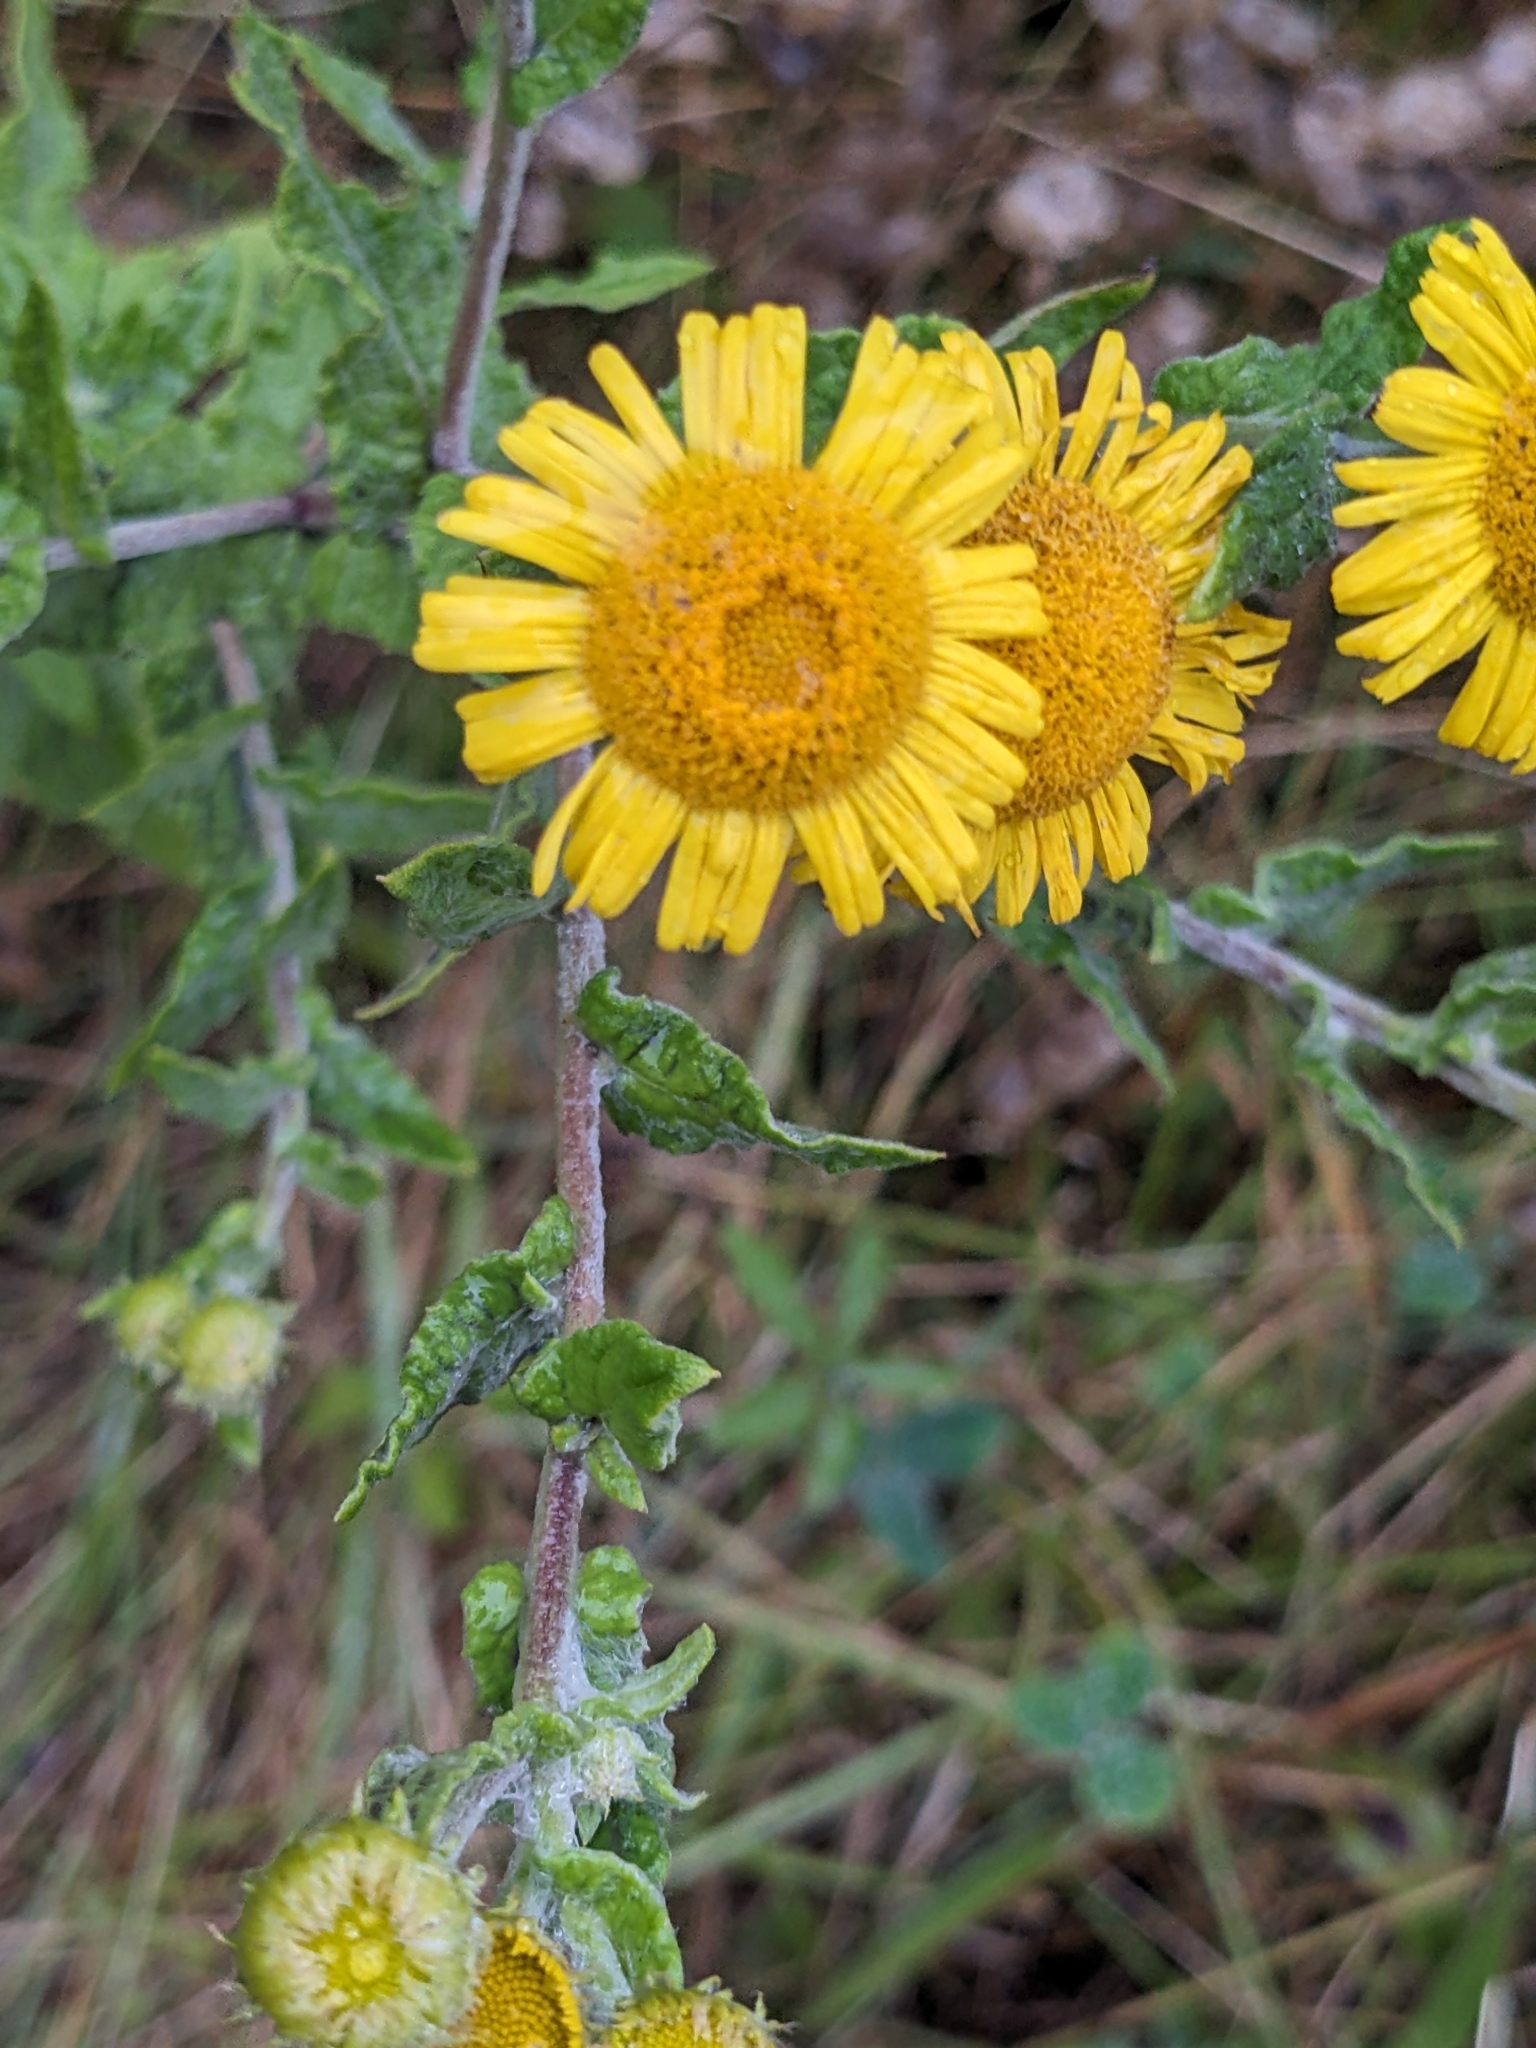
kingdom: Plantae
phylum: Tracheophyta
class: Magnoliopsida
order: Asterales
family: Asteraceae
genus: Pulicaria
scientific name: Pulicaria dysenterica
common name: Common fleabane
